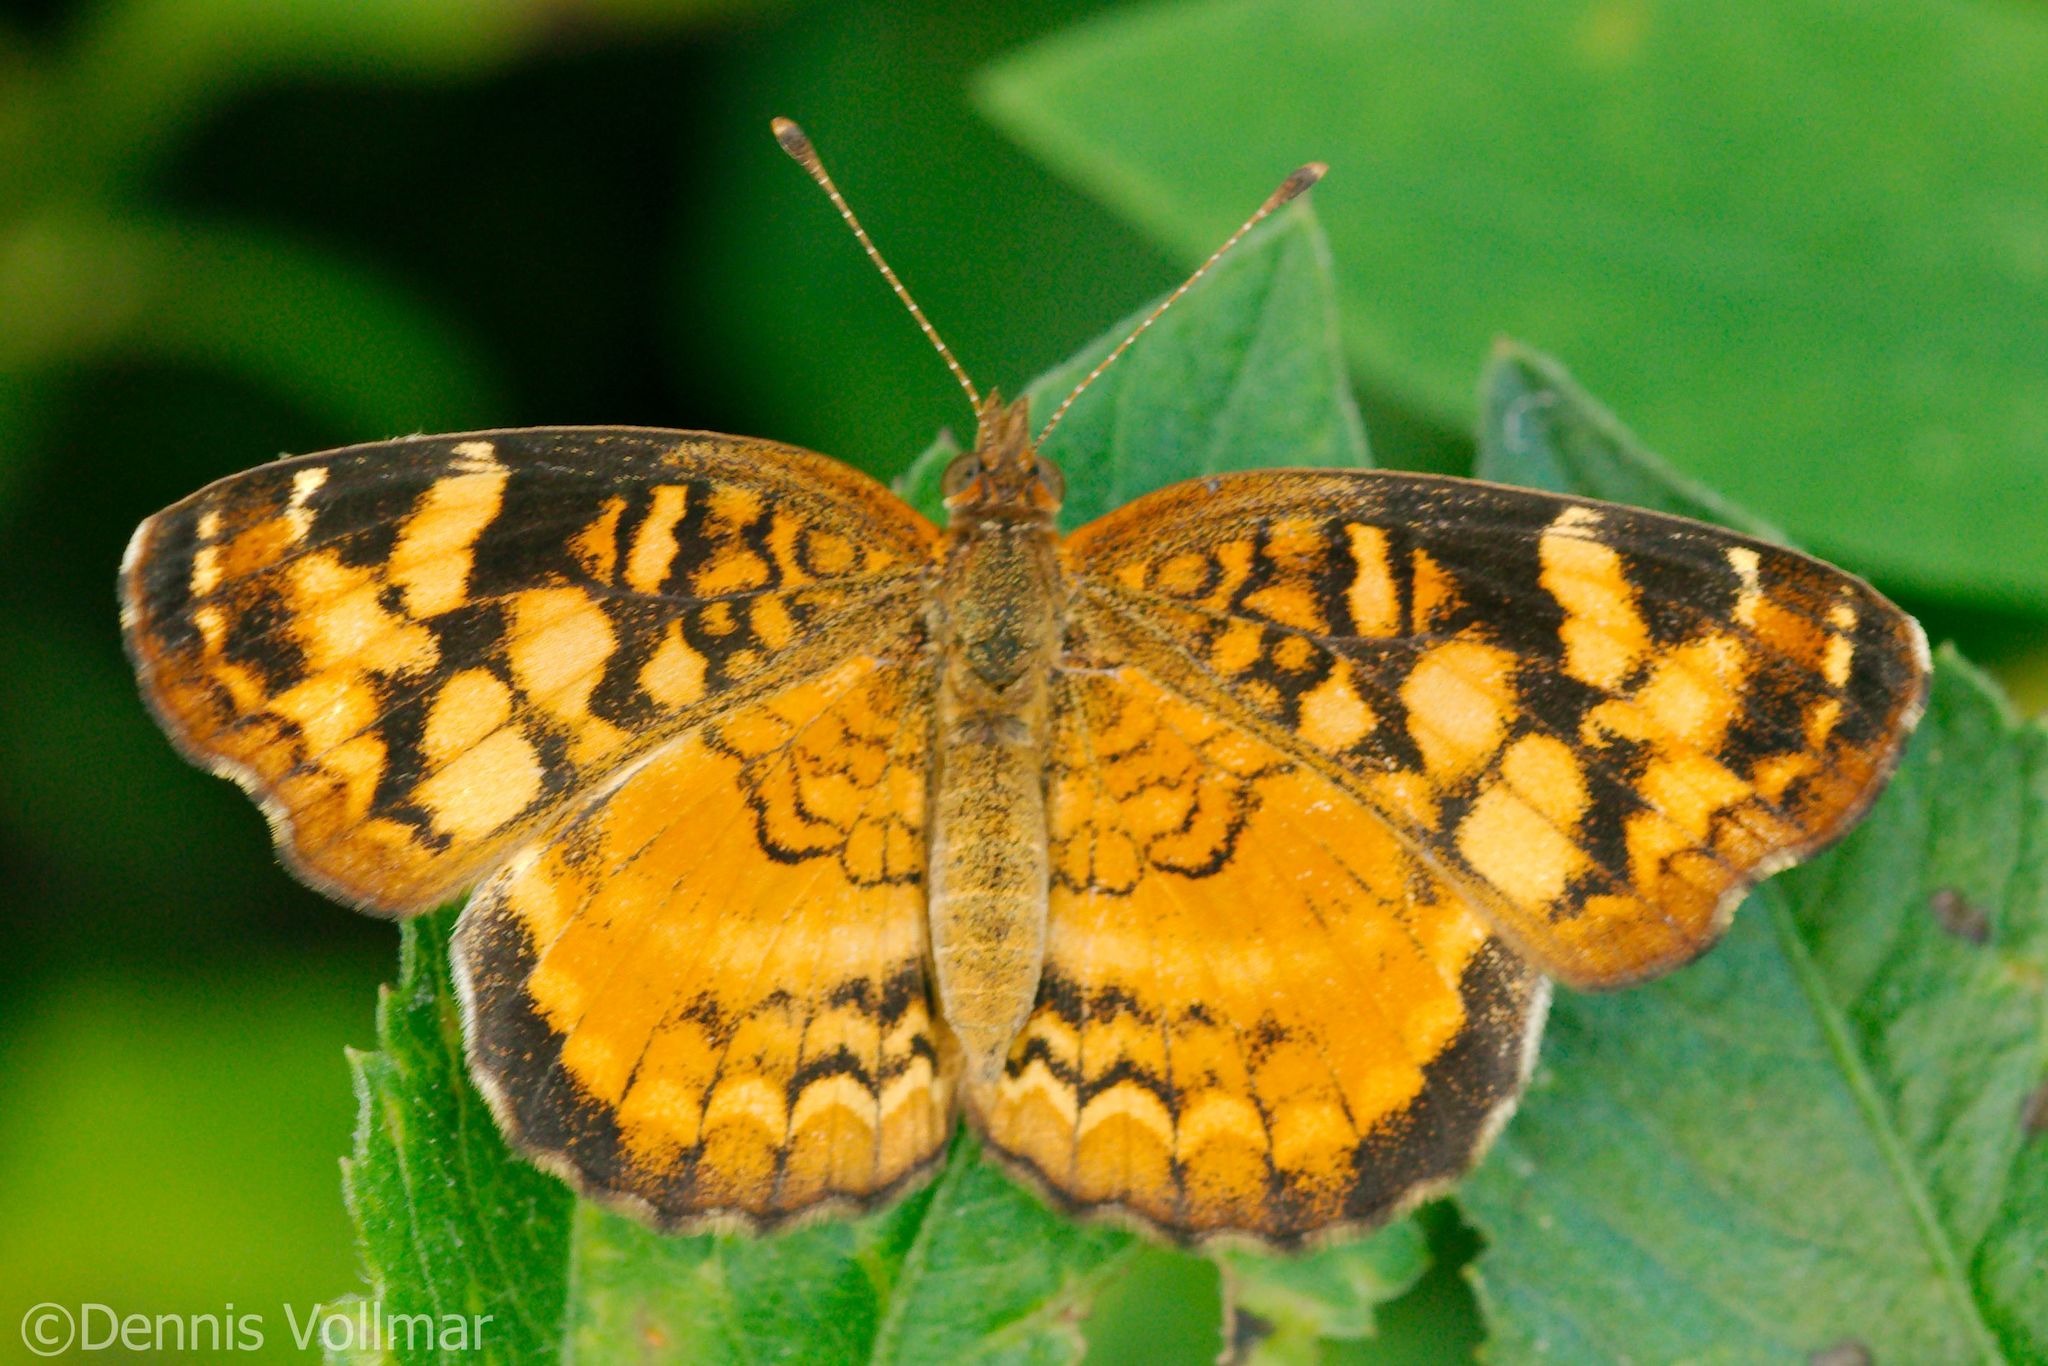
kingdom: Animalia
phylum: Arthropoda
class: Insecta
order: Lepidoptera
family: Nymphalidae
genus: Anthanassa
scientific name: Anthanassa frisia
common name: Cuban crescent
